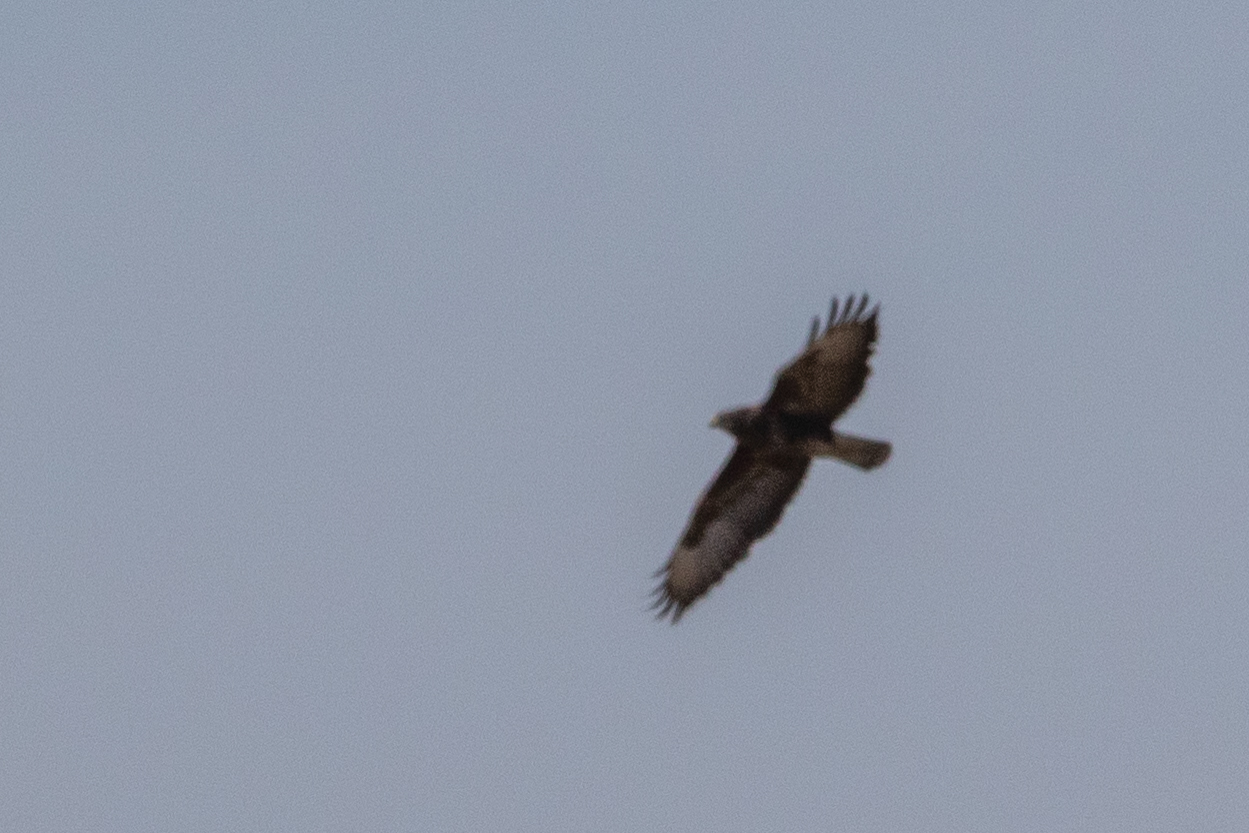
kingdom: Animalia
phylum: Chordata
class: Aves
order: Accipitriformes
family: Accipitridae
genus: Buteo
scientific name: Buteo buteo
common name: Common buzzard
